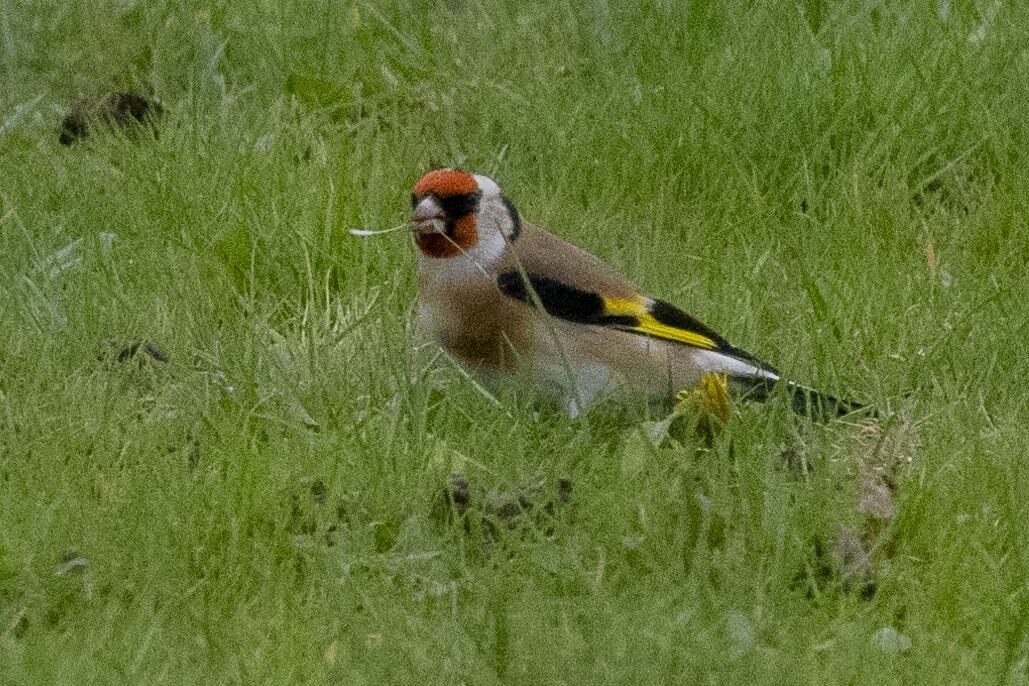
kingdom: Animalia
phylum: Chordata
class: Aves
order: Passeriformes
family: Fringillidae
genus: Carduelis
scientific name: Carduelis carduelis
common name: European goldfinch
